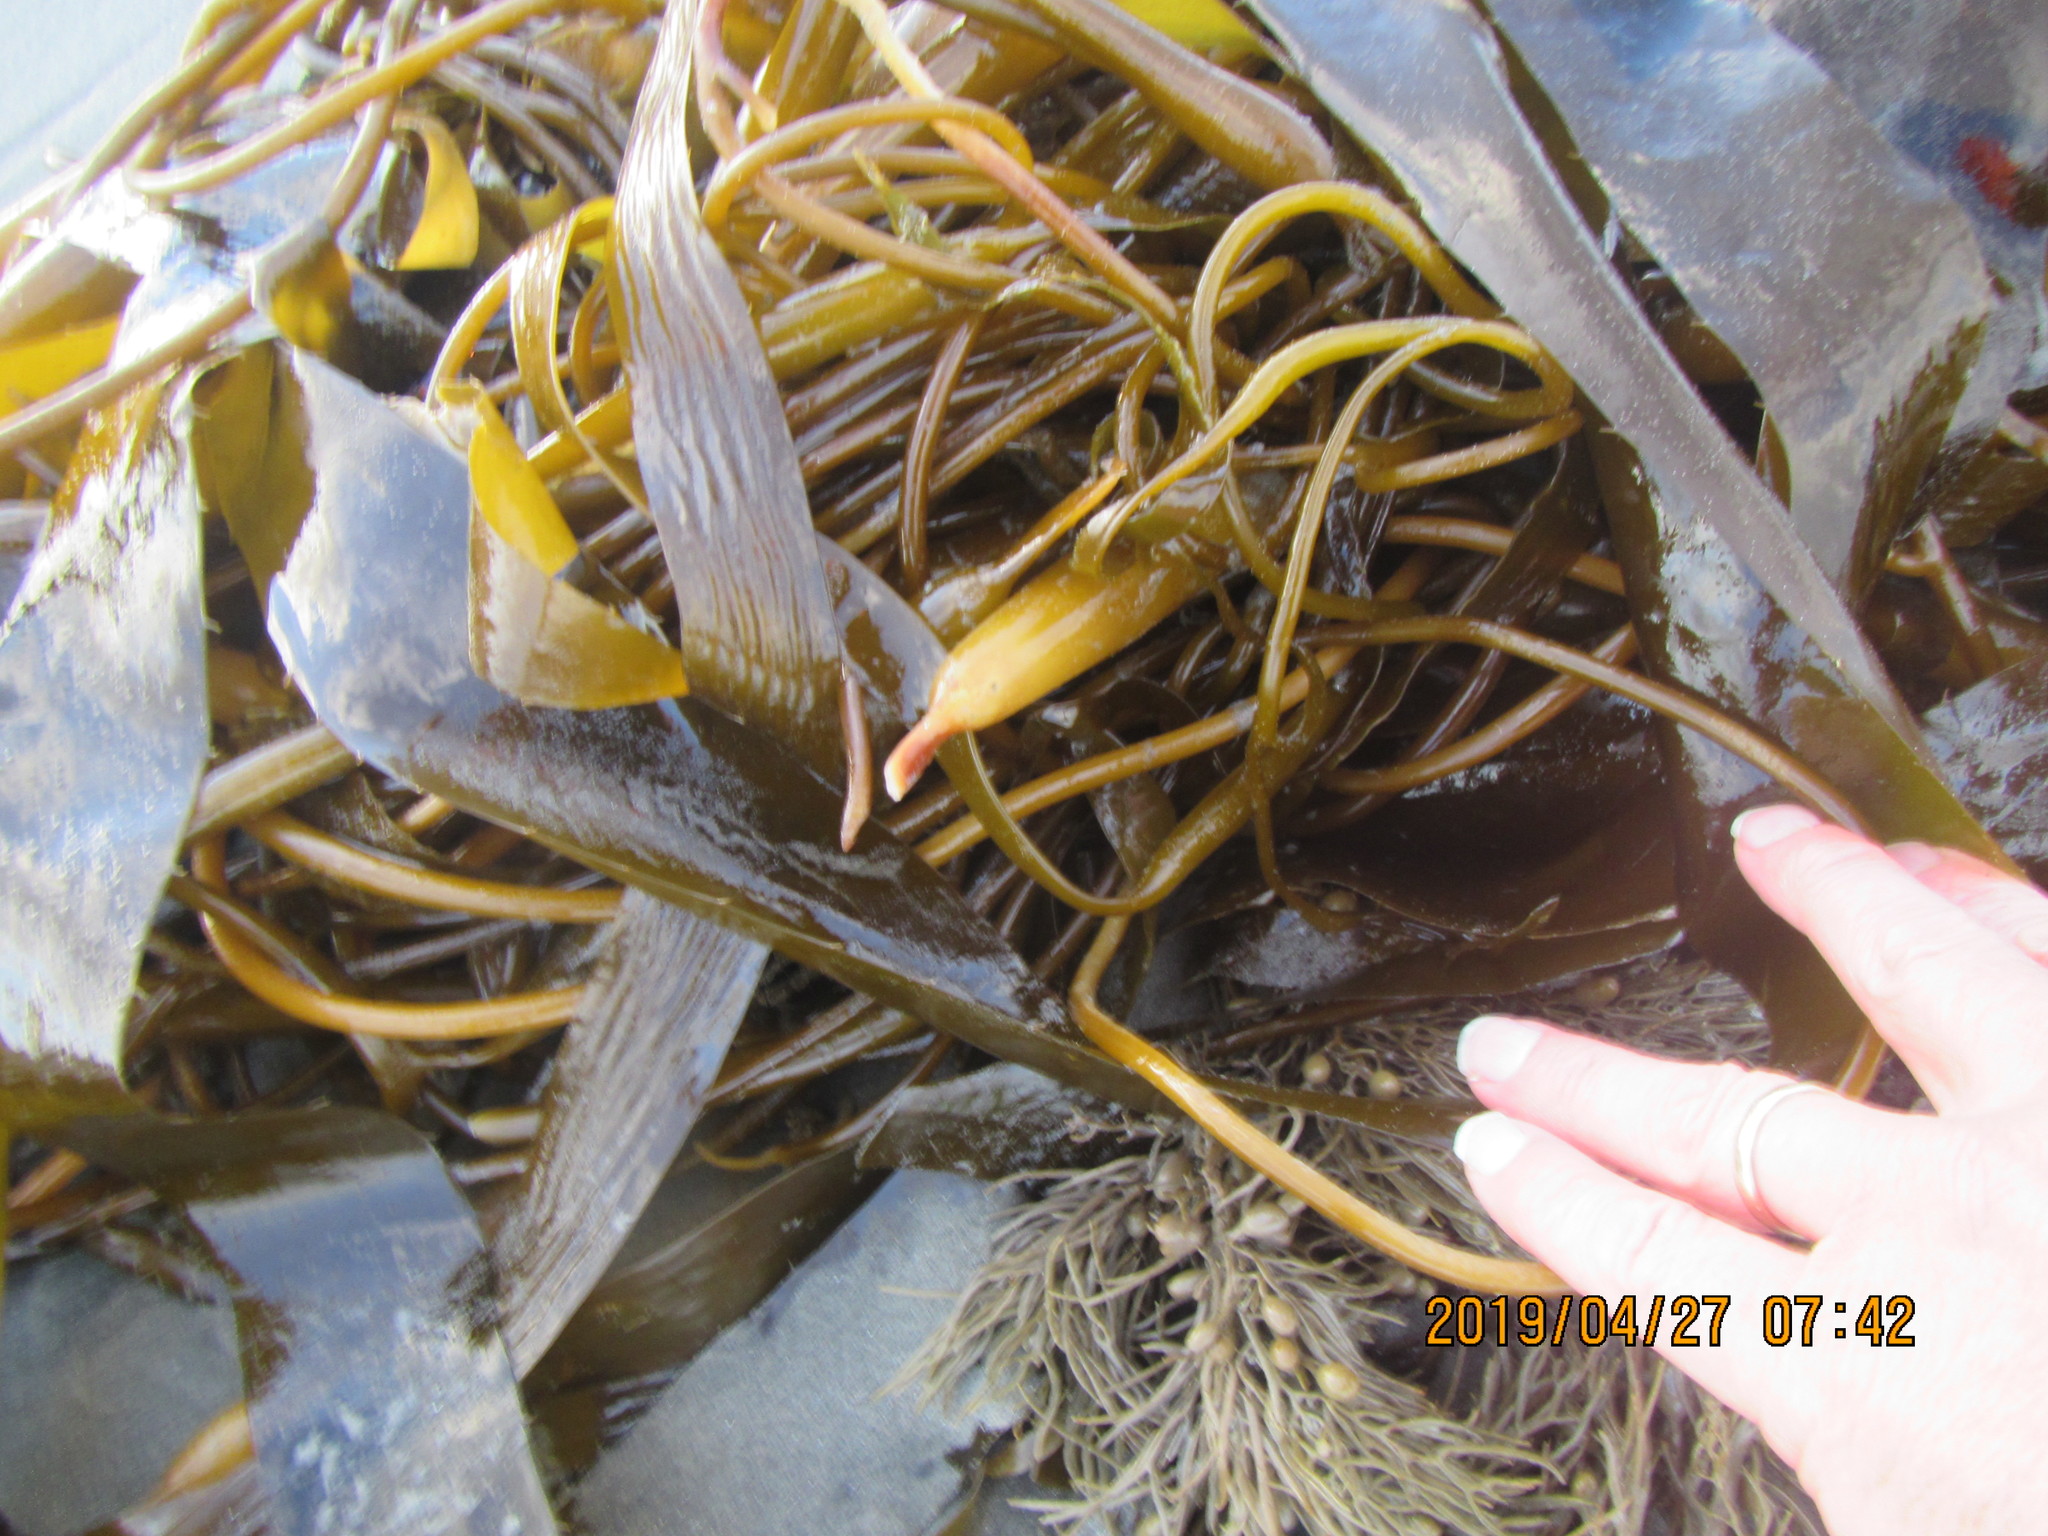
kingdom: Chromista
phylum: Ochrophyta
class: Phaeophyceae
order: Laminariales
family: Laminariaceae
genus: Macrocystis
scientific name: Macrocystis pyrifera
